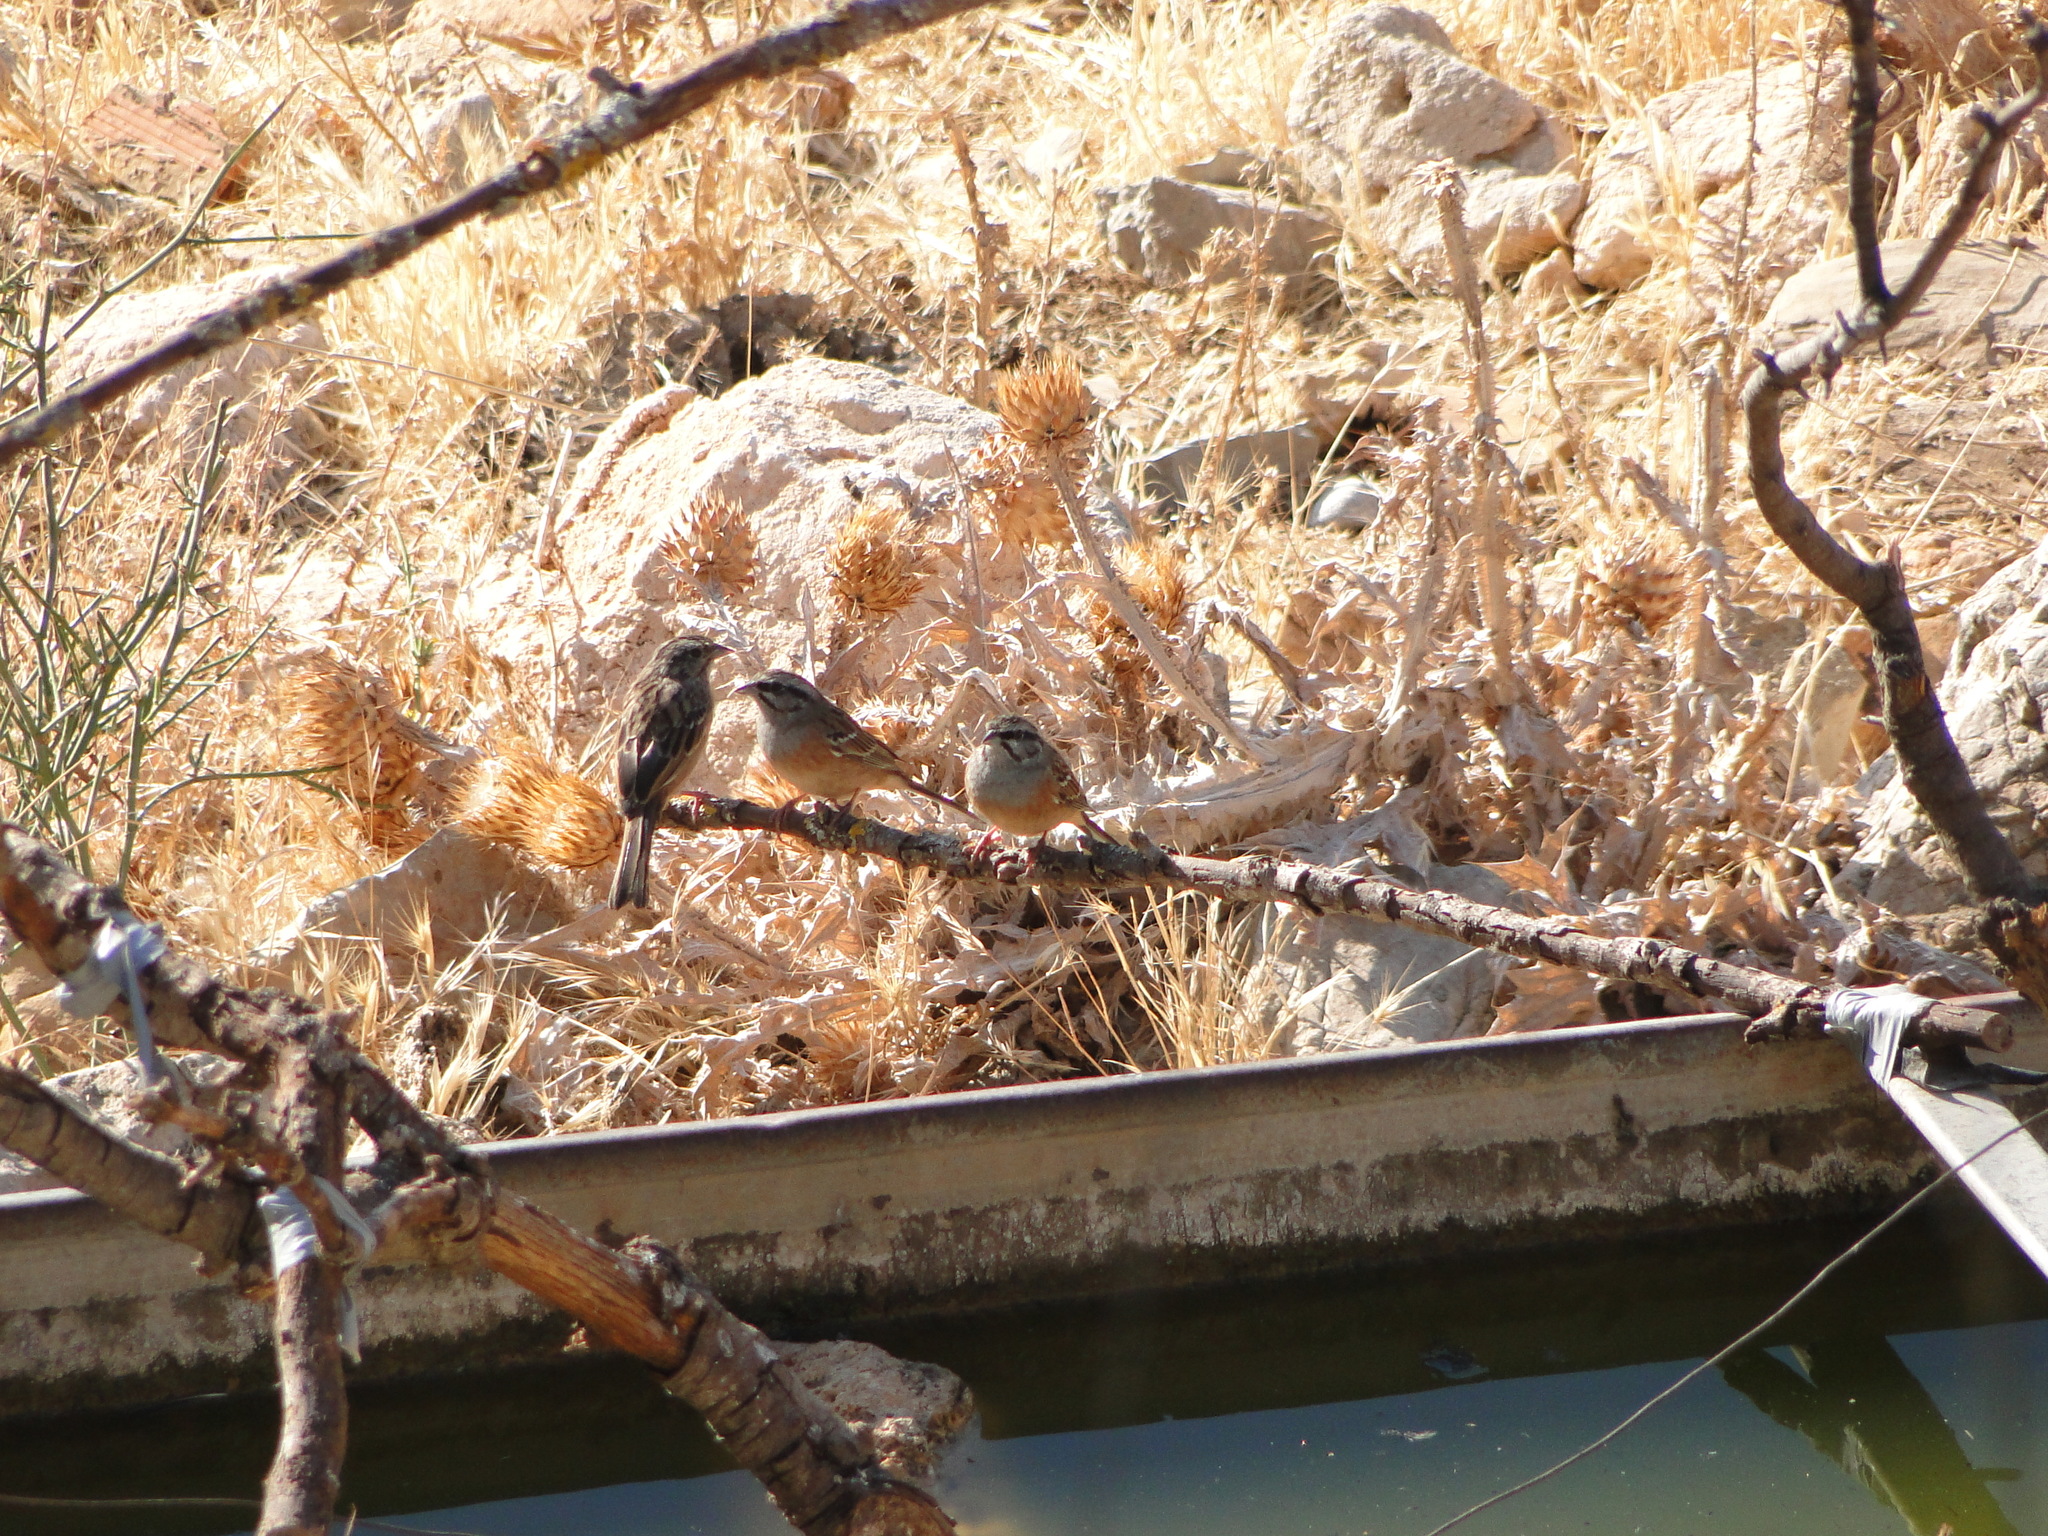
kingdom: Animalia
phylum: Chordata
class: Aves
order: Passeriformes
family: Emberizidae
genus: Emberiza
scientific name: Emberiza cia
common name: Rock bunting
